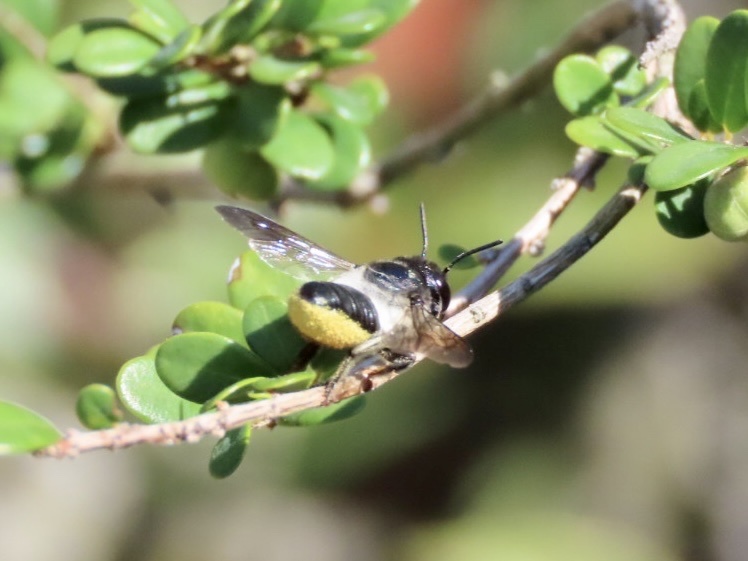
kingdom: Animalia
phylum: Arthropoda
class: Insecta
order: Hymenoptera
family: Megachilidae
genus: Megachile
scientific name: Megachile conjuncta
